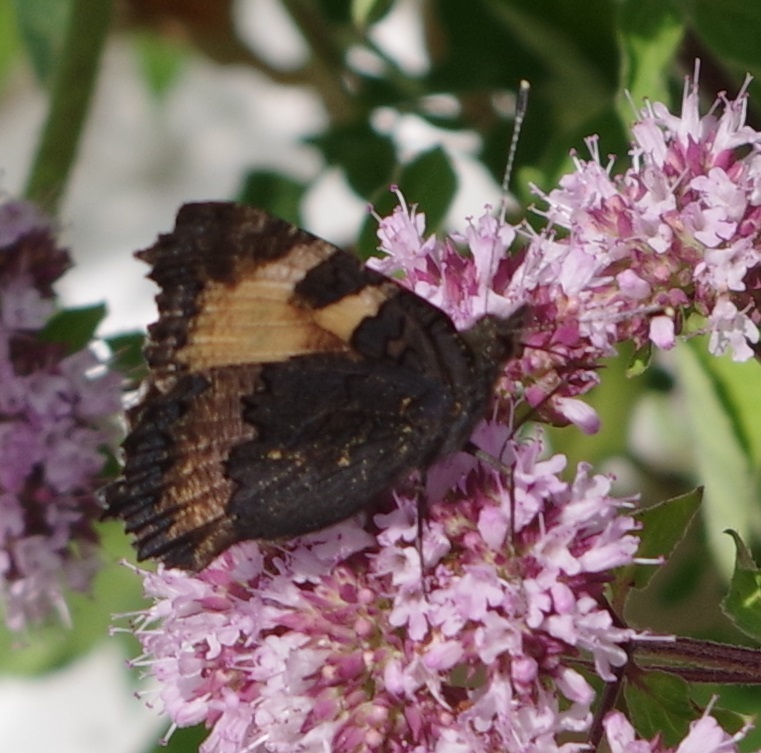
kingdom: Animalia
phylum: Arthropoda
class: Insecta
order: Lepidoptera
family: Nymphalidae
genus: Aglais
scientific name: Aglais urticae
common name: Small tortoiseshell
